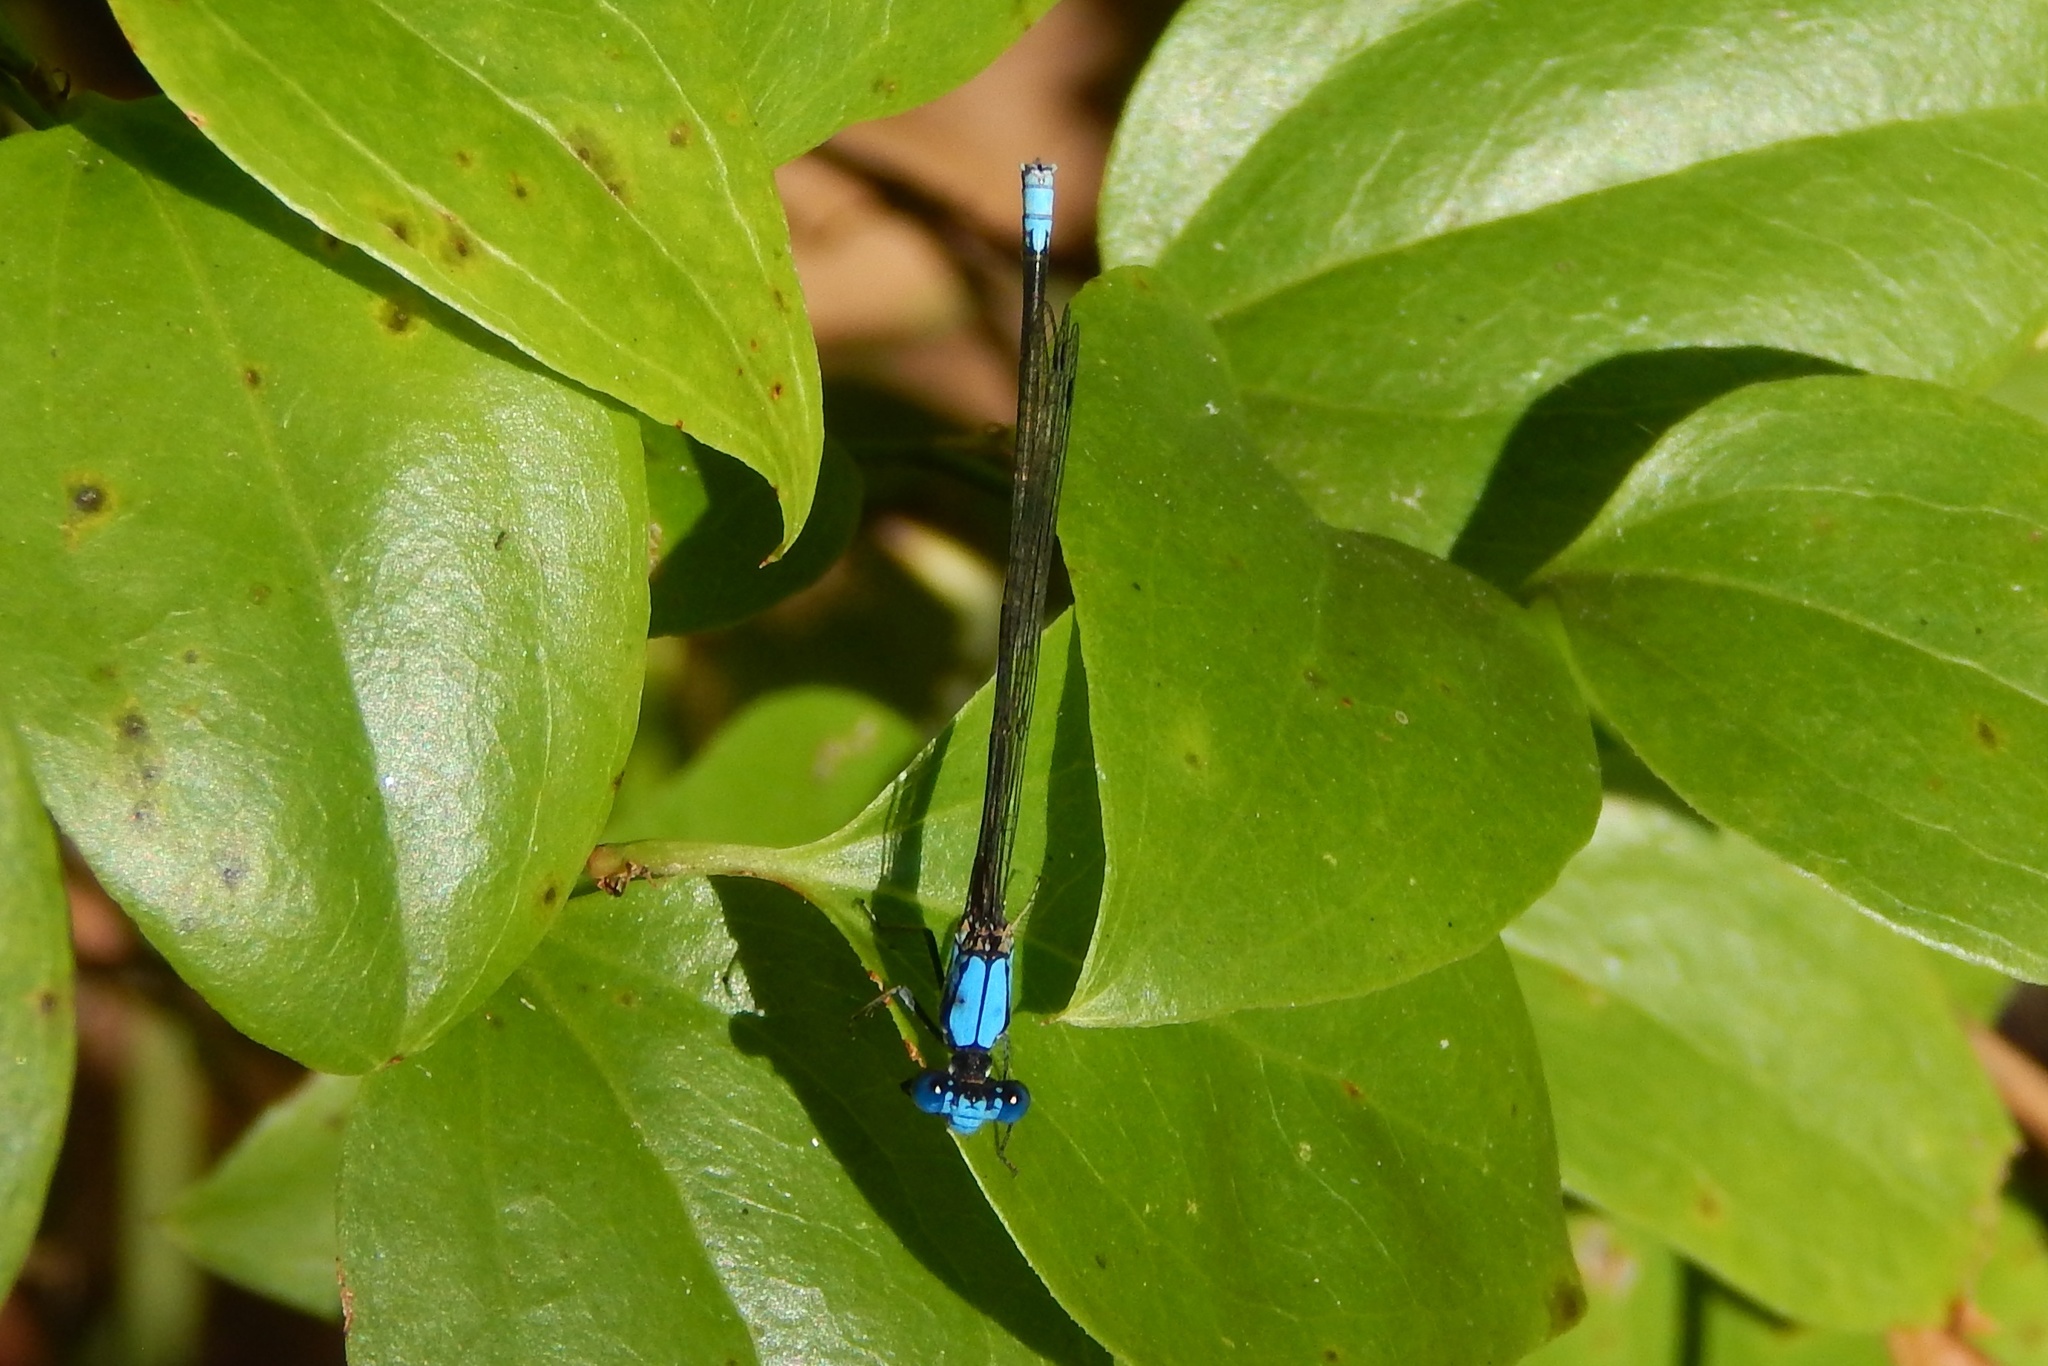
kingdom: Animalia
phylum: Arthropoda
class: Insecta
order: Odonata
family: Coenagrionidae
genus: Argia
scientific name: Argia apicalis
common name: Blue-fronted dancer
